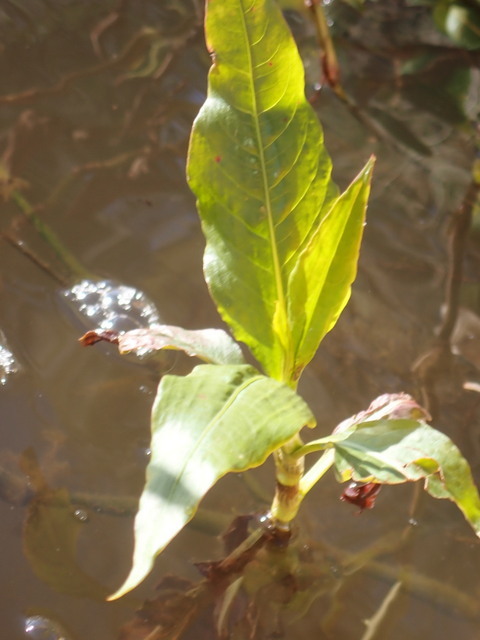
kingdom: Plantae
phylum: Tracheophyta
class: Magnoliopsida
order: Caryophyllales
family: Polygonaceae
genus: Persicaria
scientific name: Persicaria glabra
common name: Denseflower knotweed
